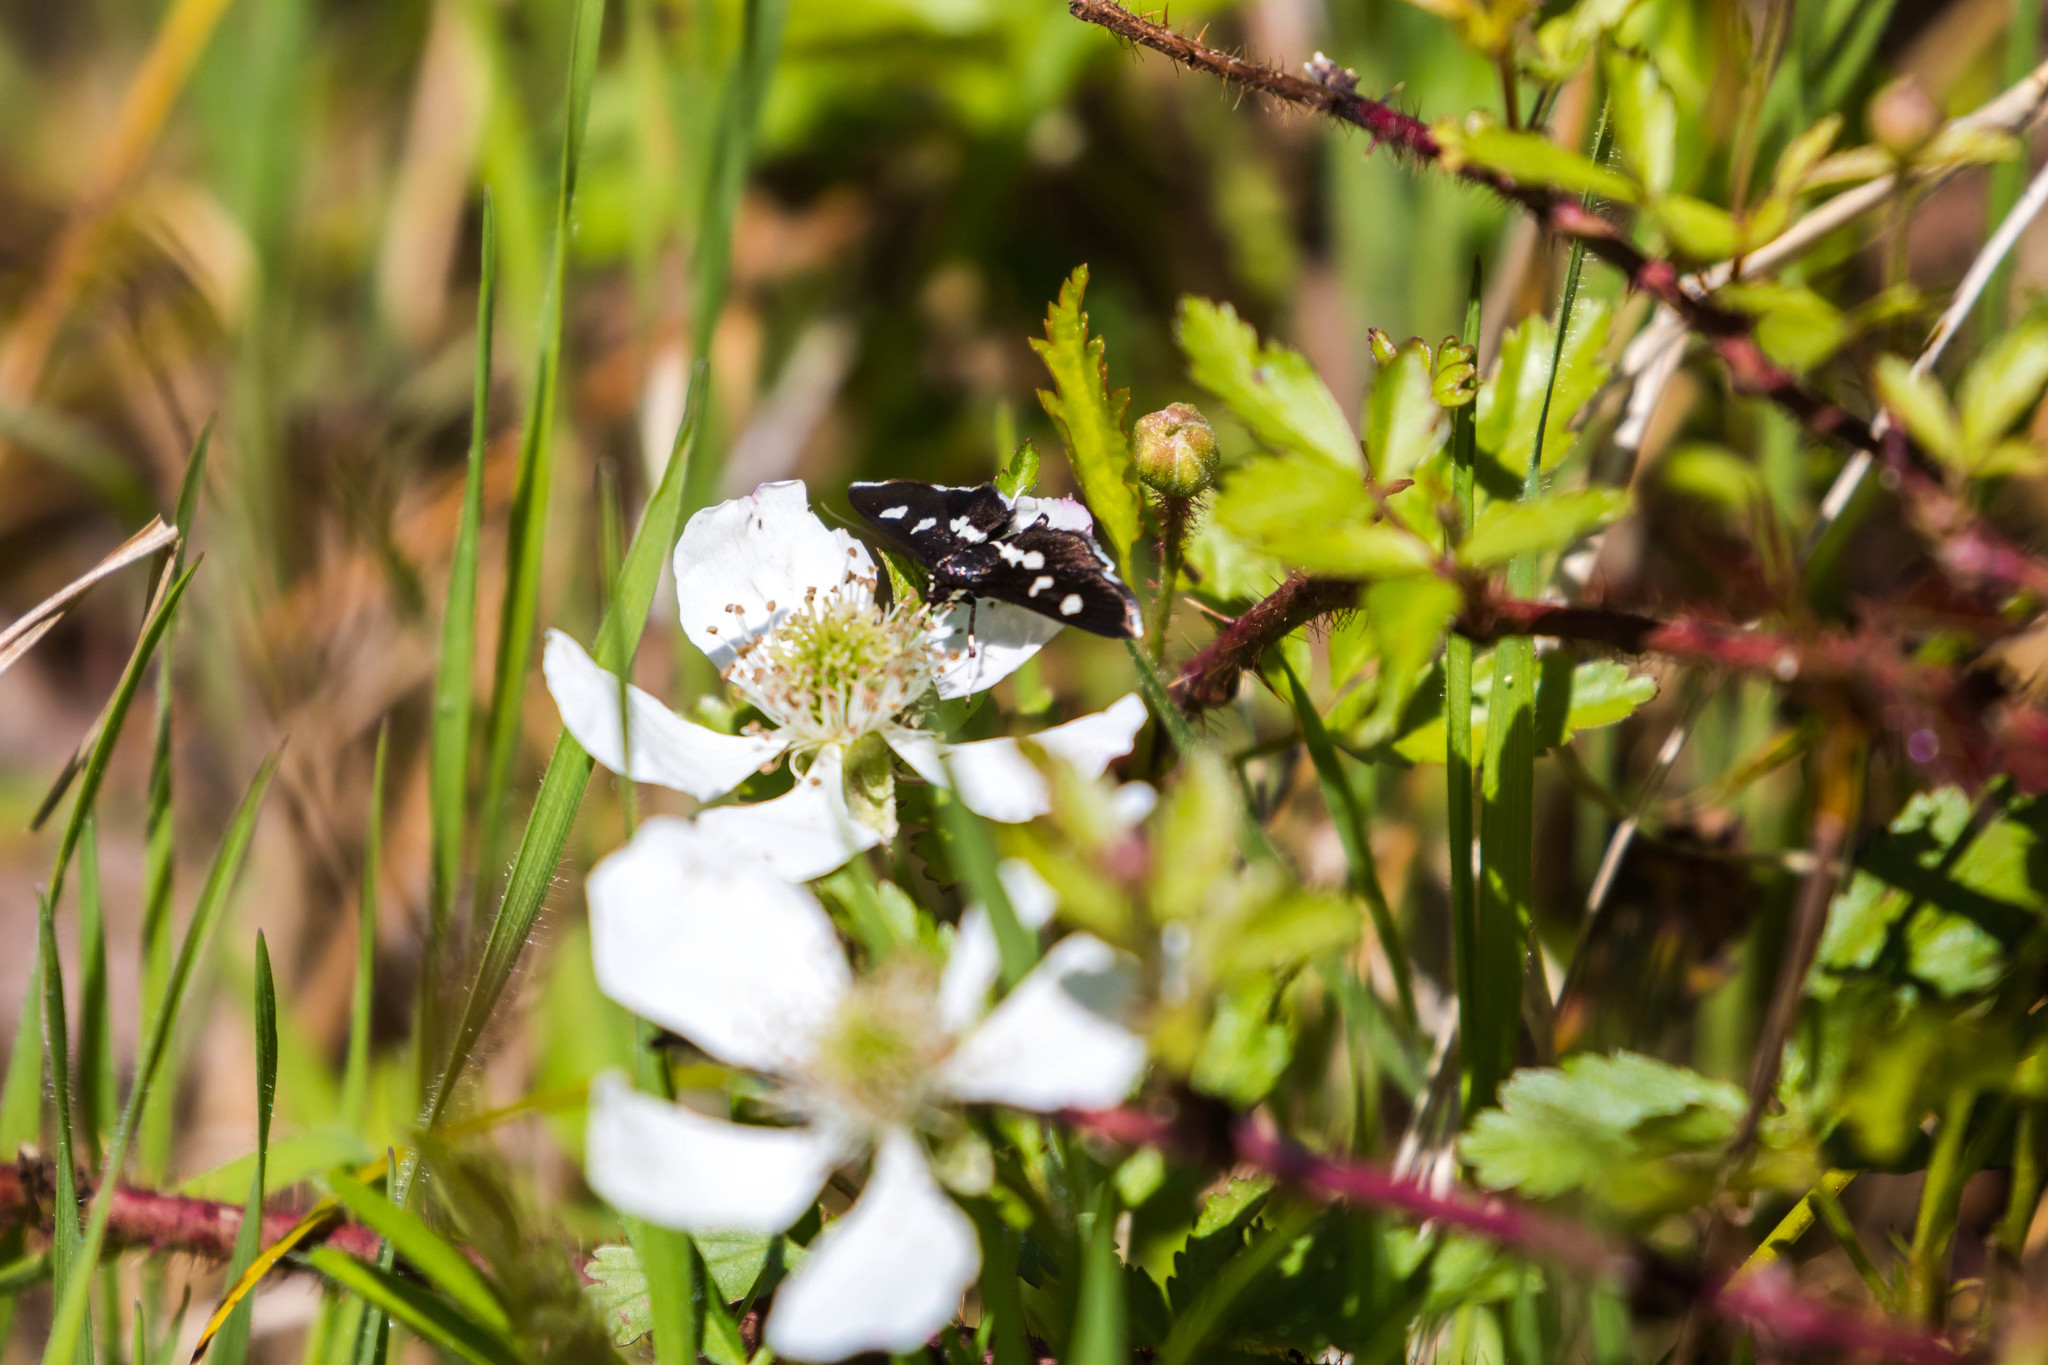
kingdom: Animalia
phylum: Arthropoda
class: Insecta
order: Lepidoptera
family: Crambidae
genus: Desmia
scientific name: Desmia
